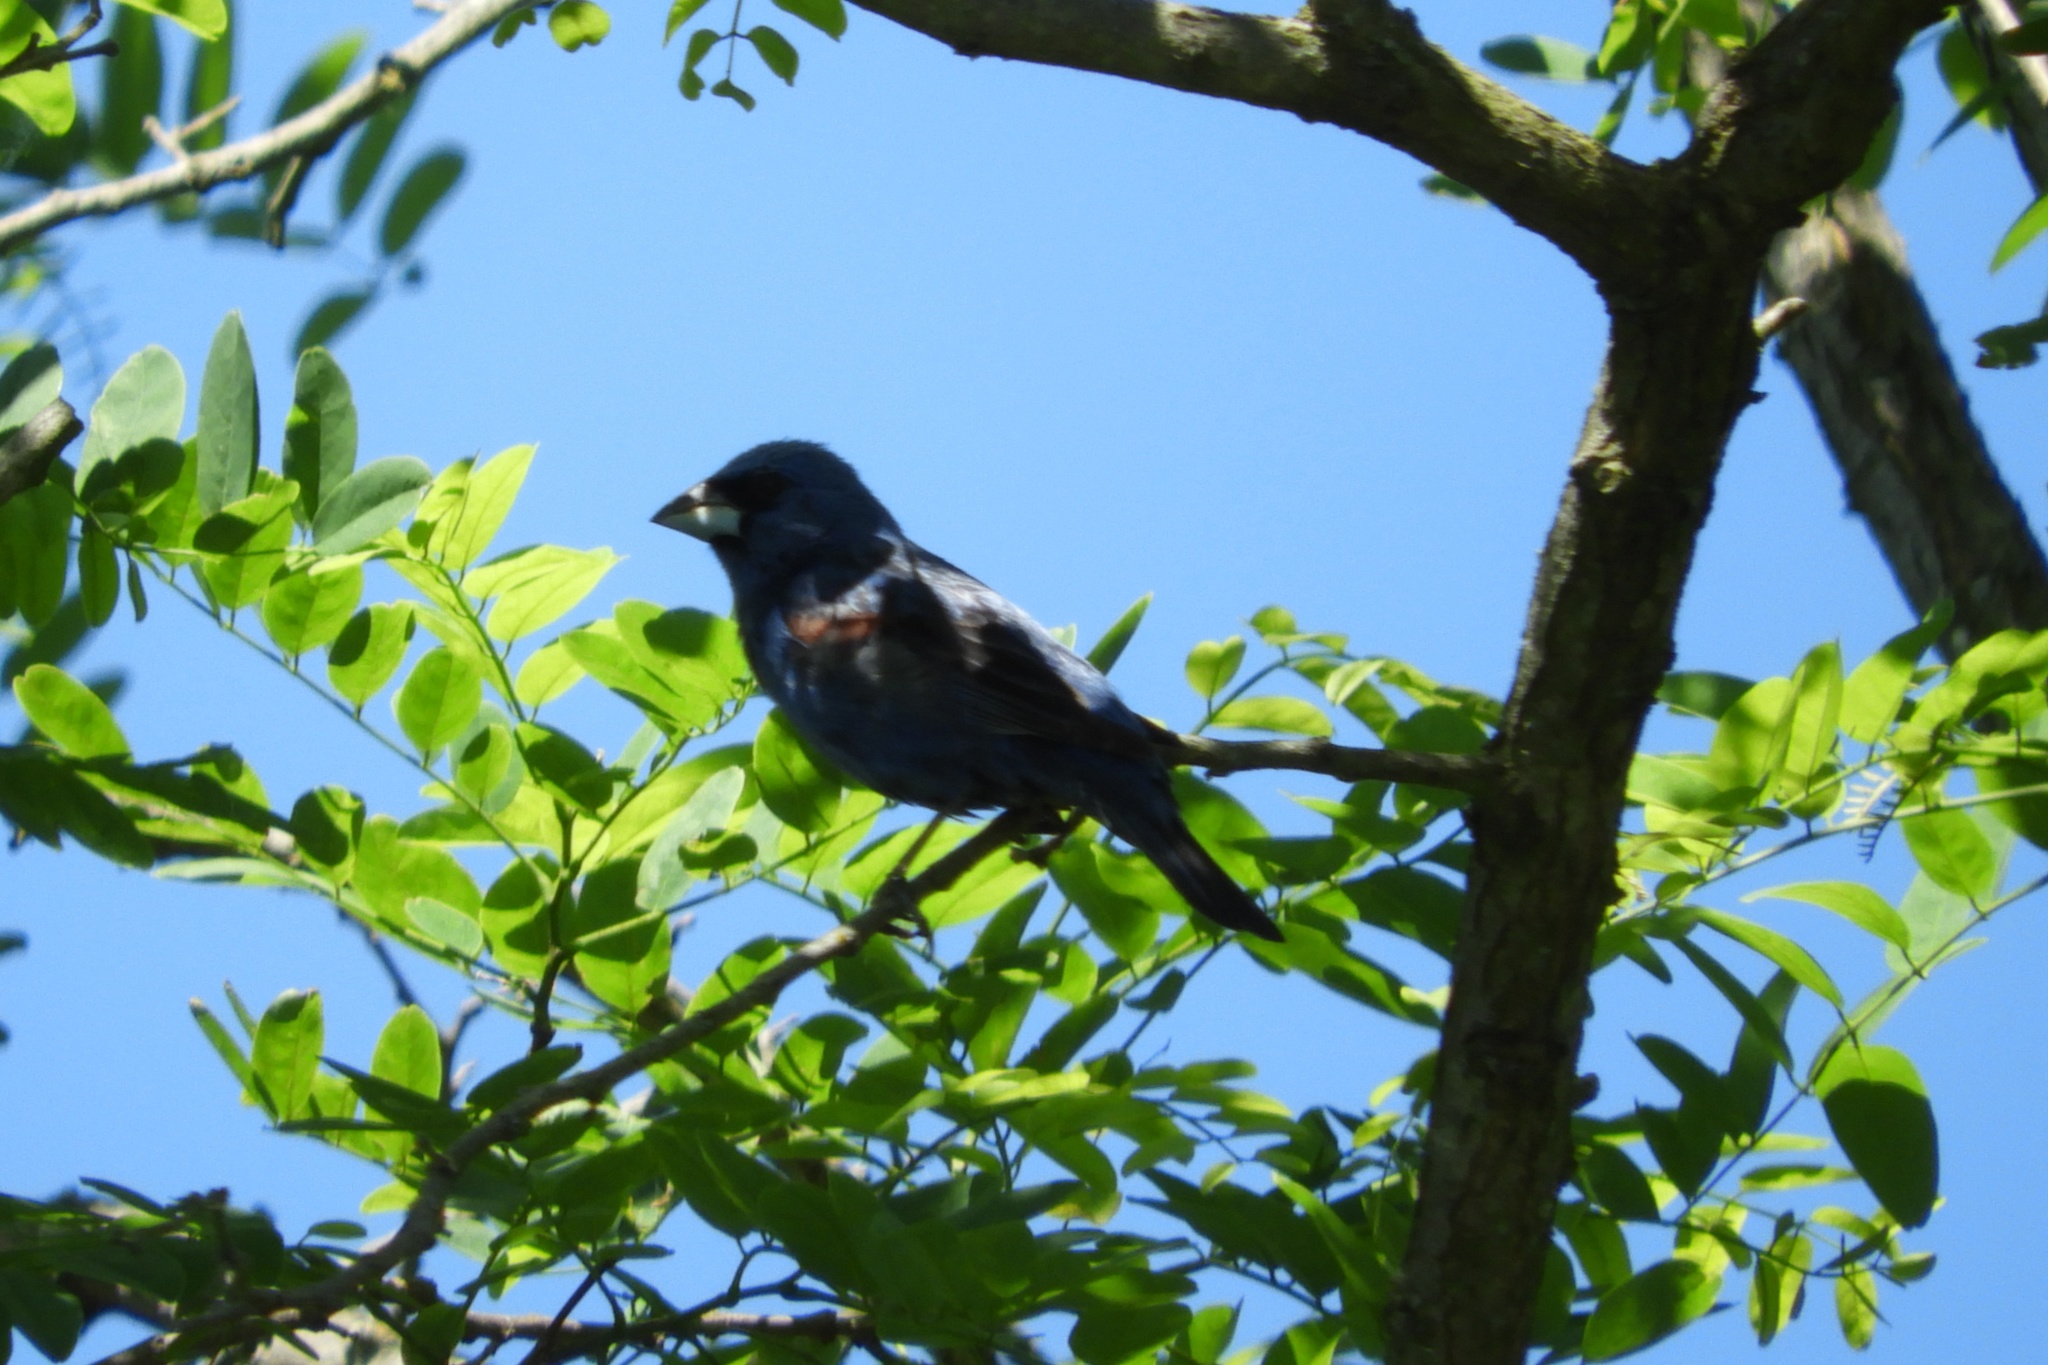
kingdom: Animalia
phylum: Chordata
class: Aves
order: Passeriformes
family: Cardinalidae
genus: Passerina
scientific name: Passerina caerulea
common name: Blue grosbeak
